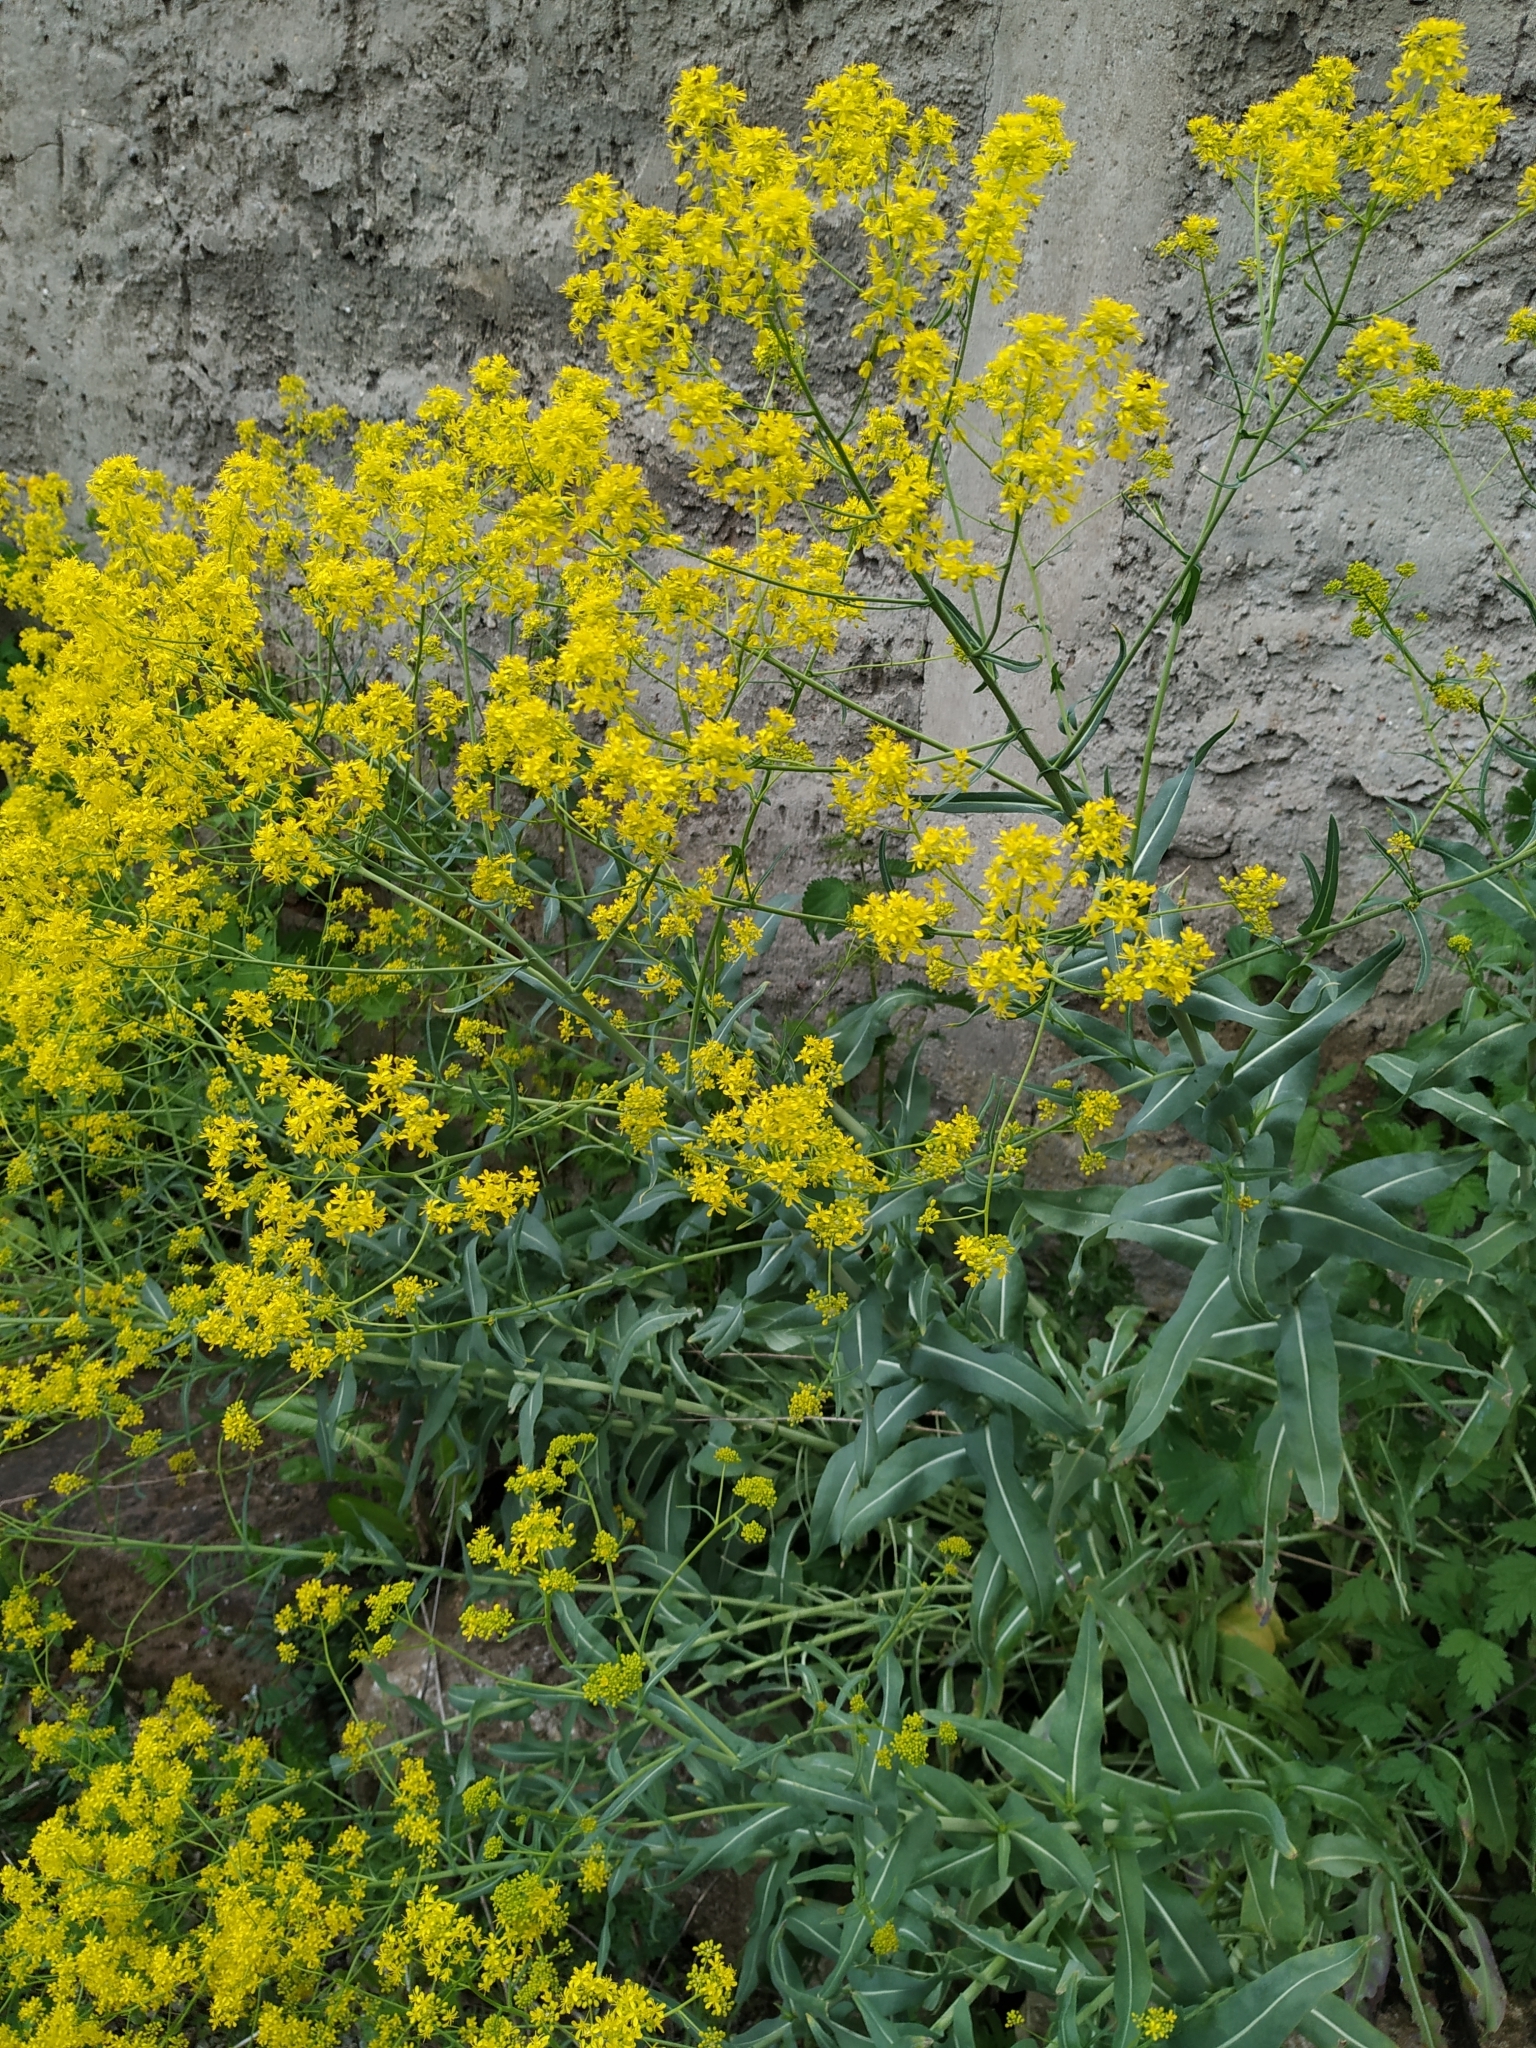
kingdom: Plantae
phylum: Tracheophyta
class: Magnoliopsida
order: Brassicales
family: Brassicaceae
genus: Isatis
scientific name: Isatis tinctoria
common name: Woad
